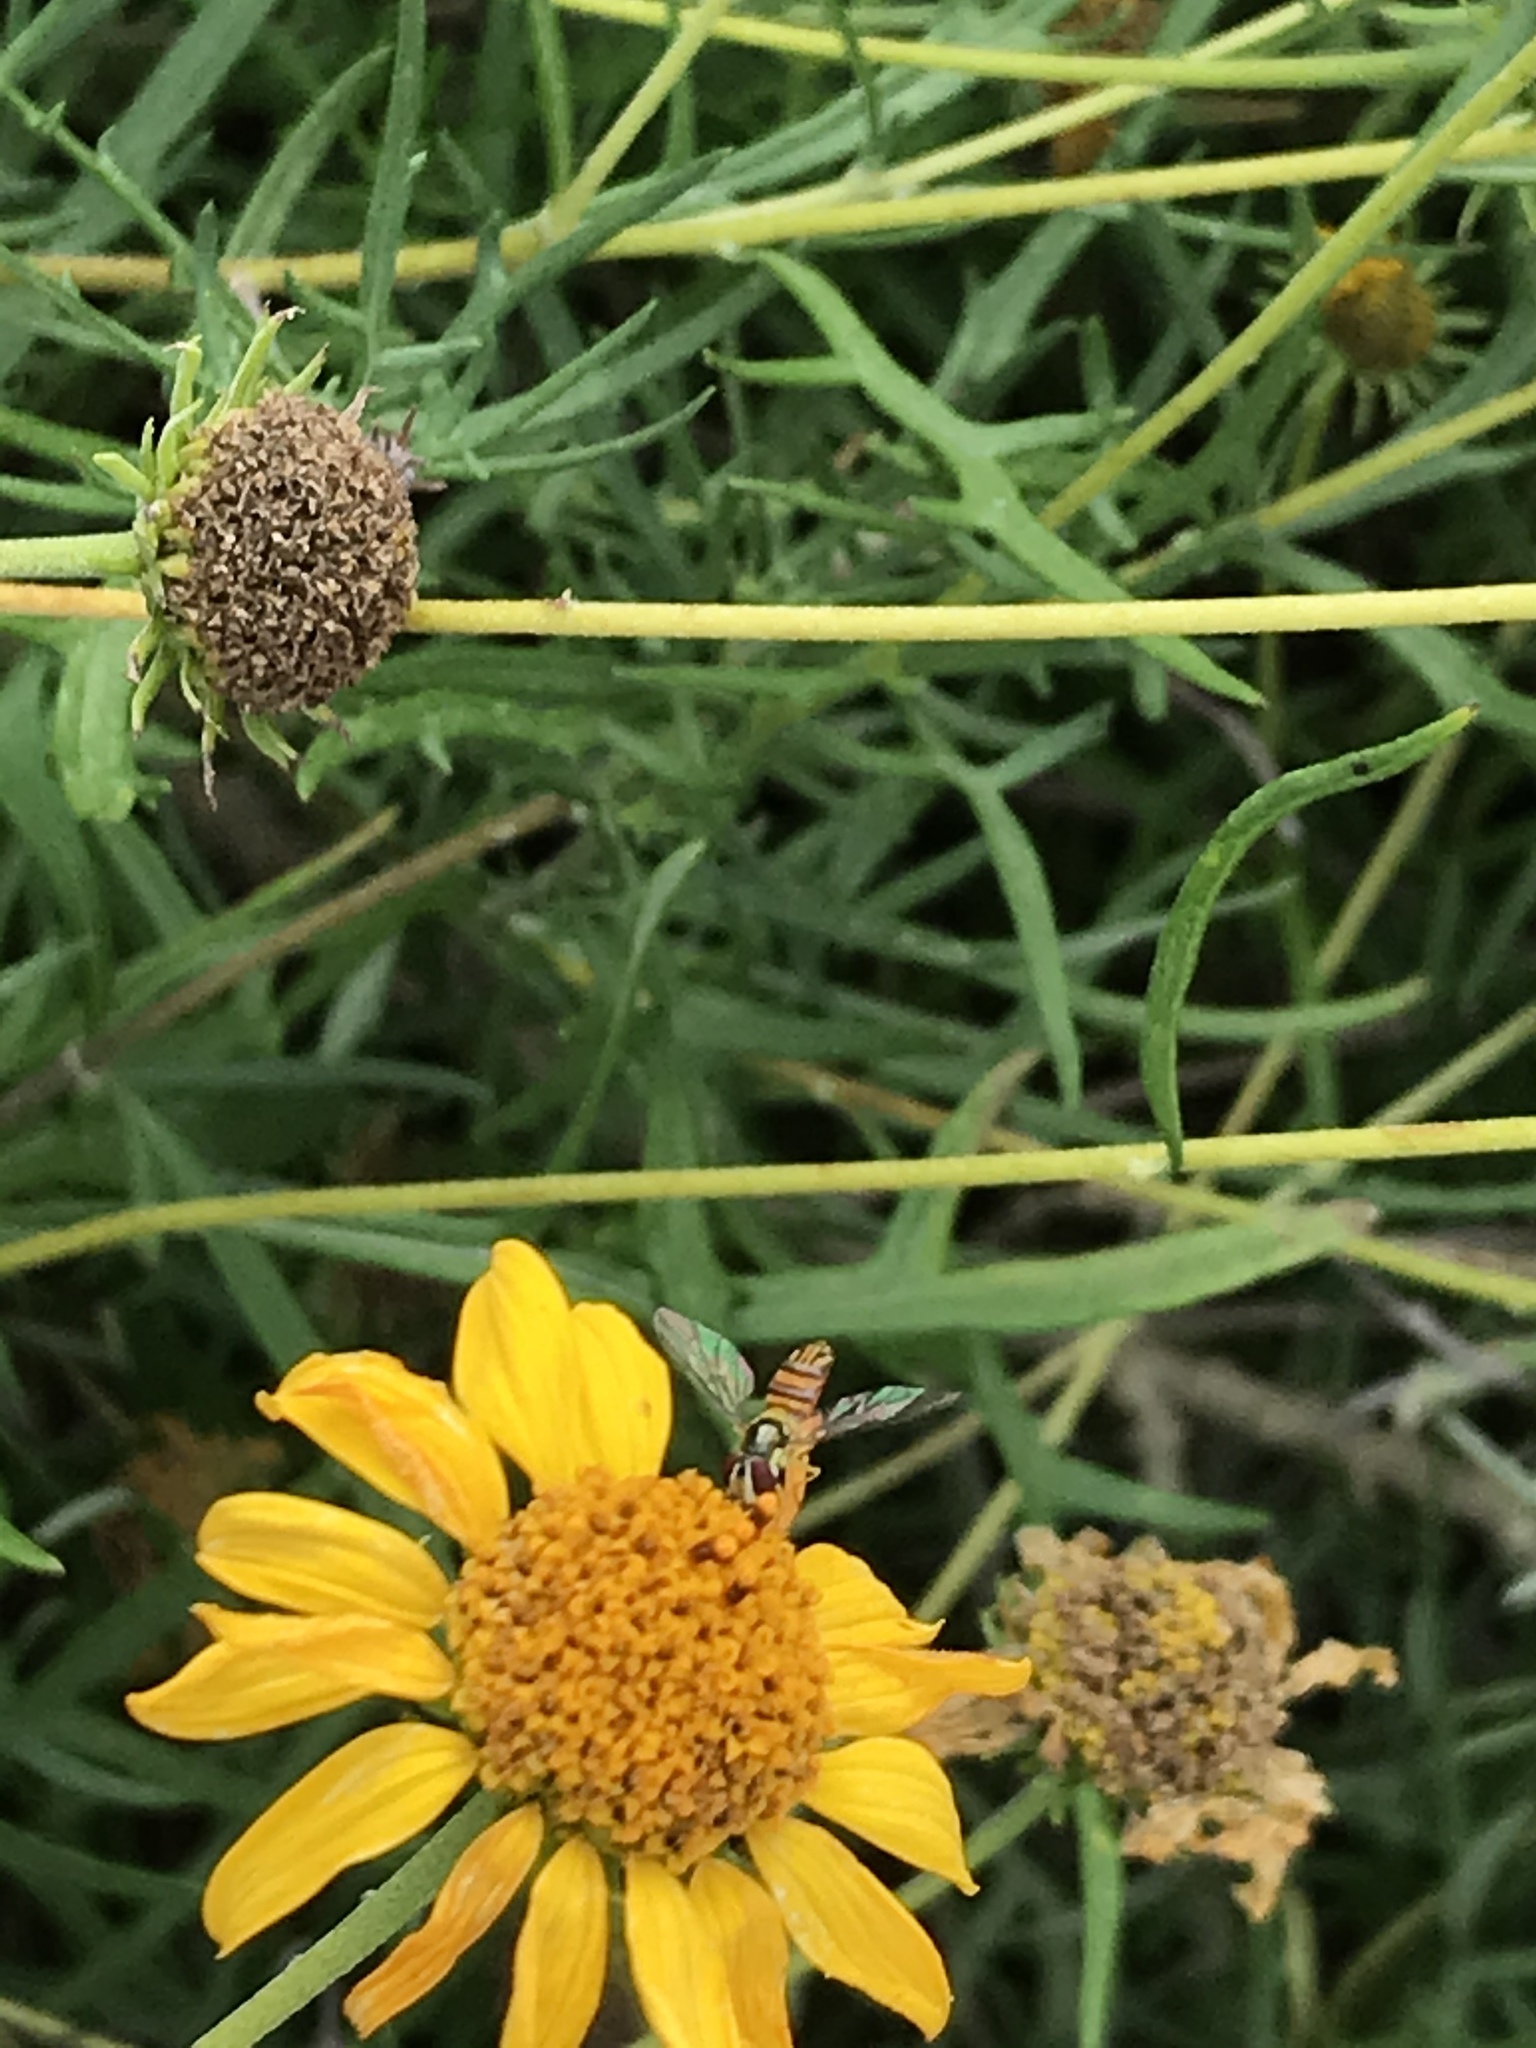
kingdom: Animalia
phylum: Arthropoda
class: Insecta
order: Diptera
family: Syrphidae
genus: Allograpta
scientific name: Allograpta obliqua
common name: Common oblique syrphid
